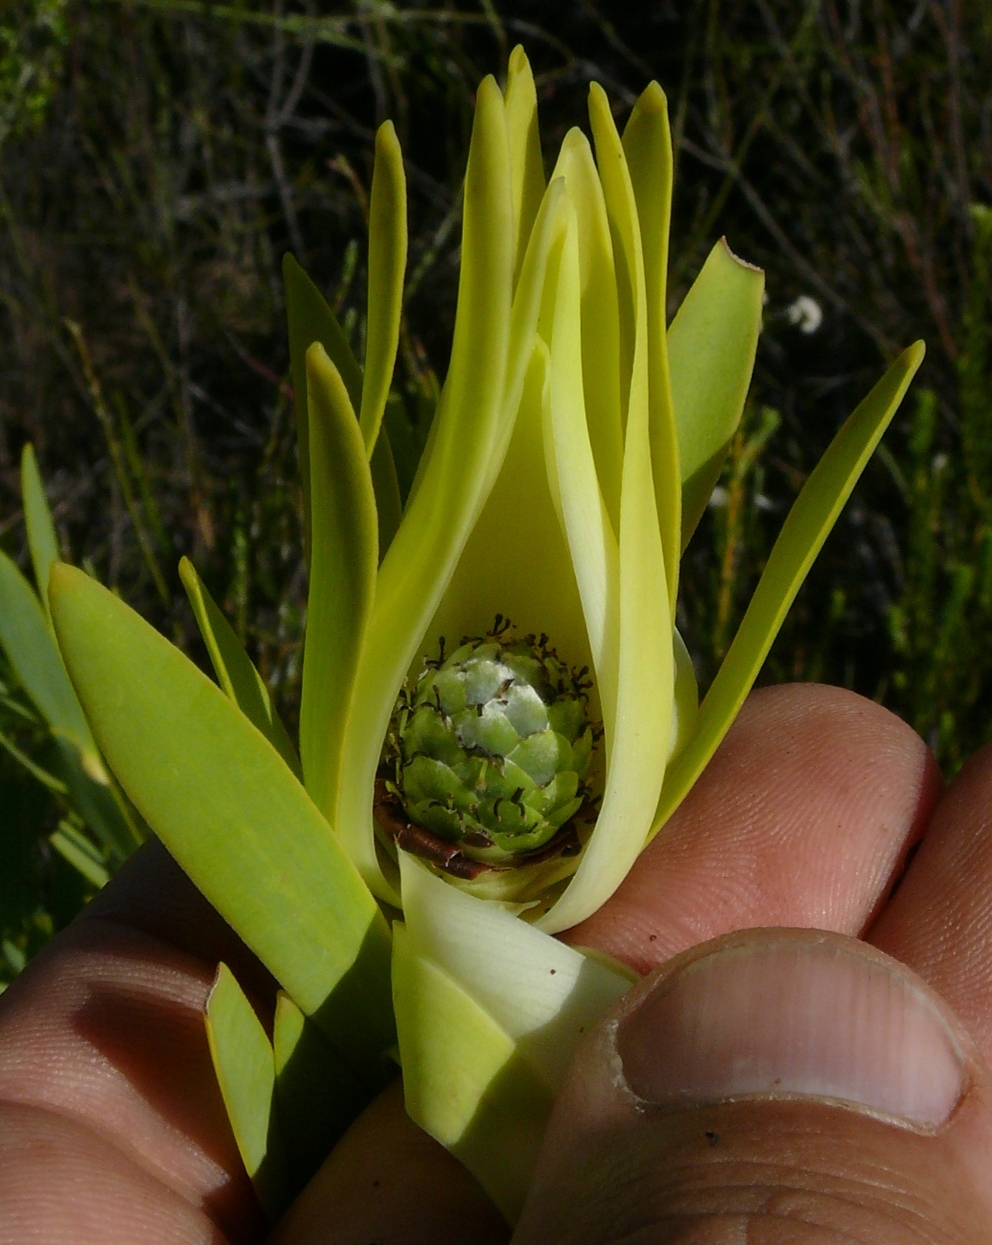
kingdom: Plantae
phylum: Tracheophyta
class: Magnoliopsida
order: Proteales
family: Proteaceae
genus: Leucadendron
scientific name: Leucadendron salignum
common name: Common sunshine conebush
